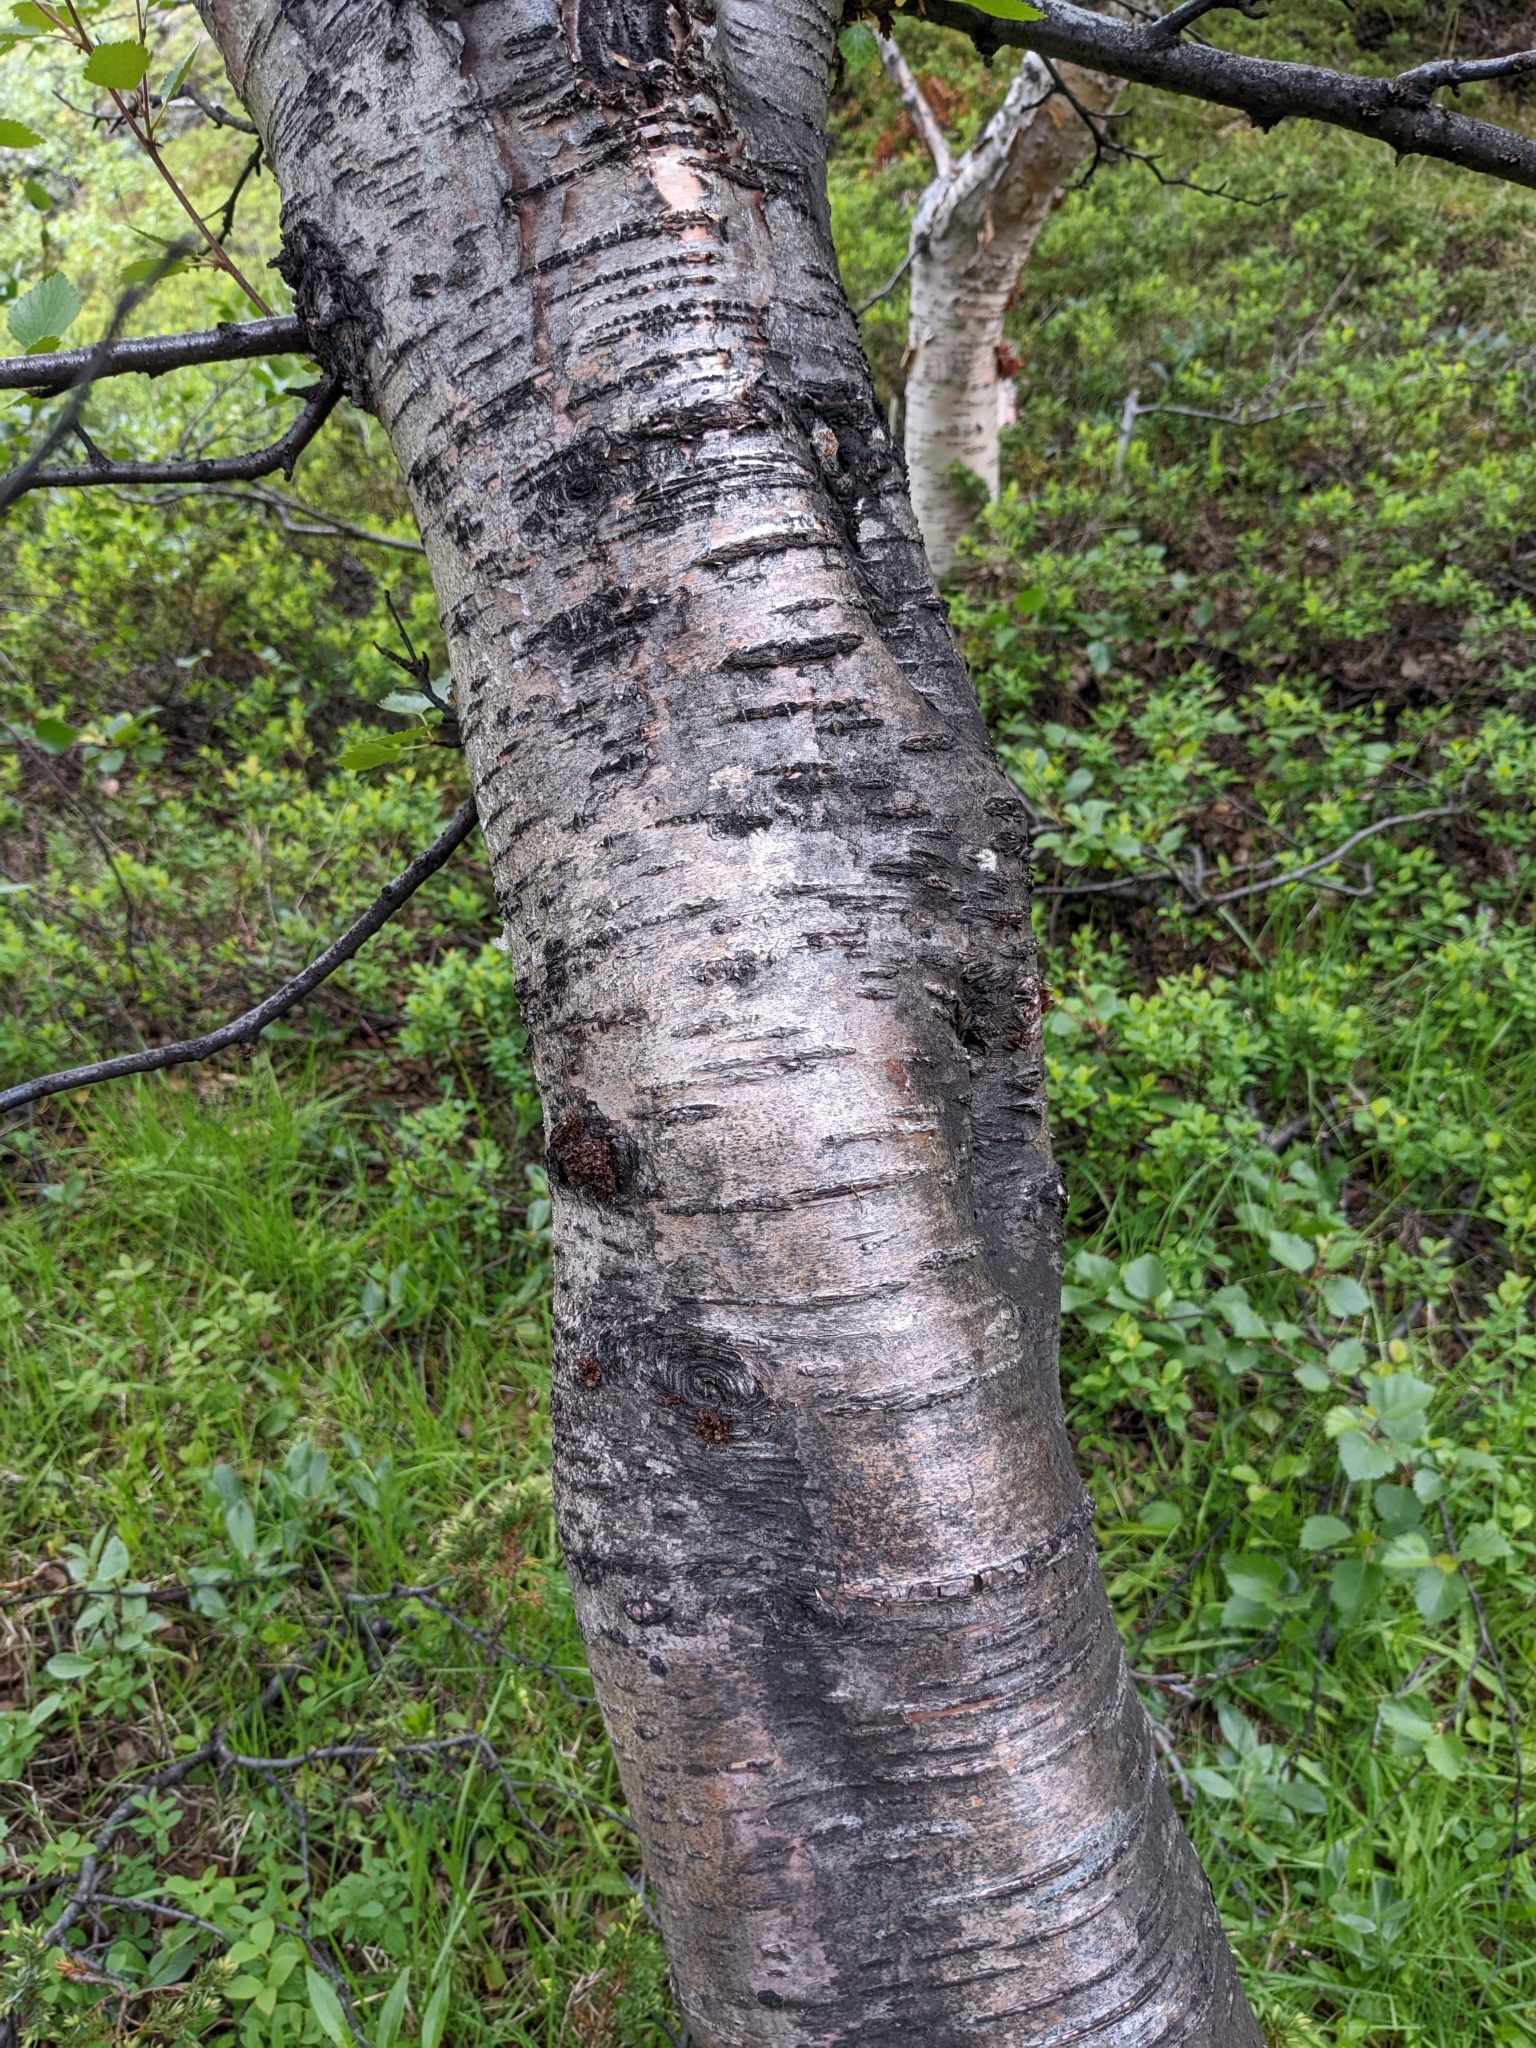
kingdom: Plantae
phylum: Tracheophyta
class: Magnoliopsida
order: Fagales
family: Betulaceae
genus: Betula
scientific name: Betula pubescens
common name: Downy birch
